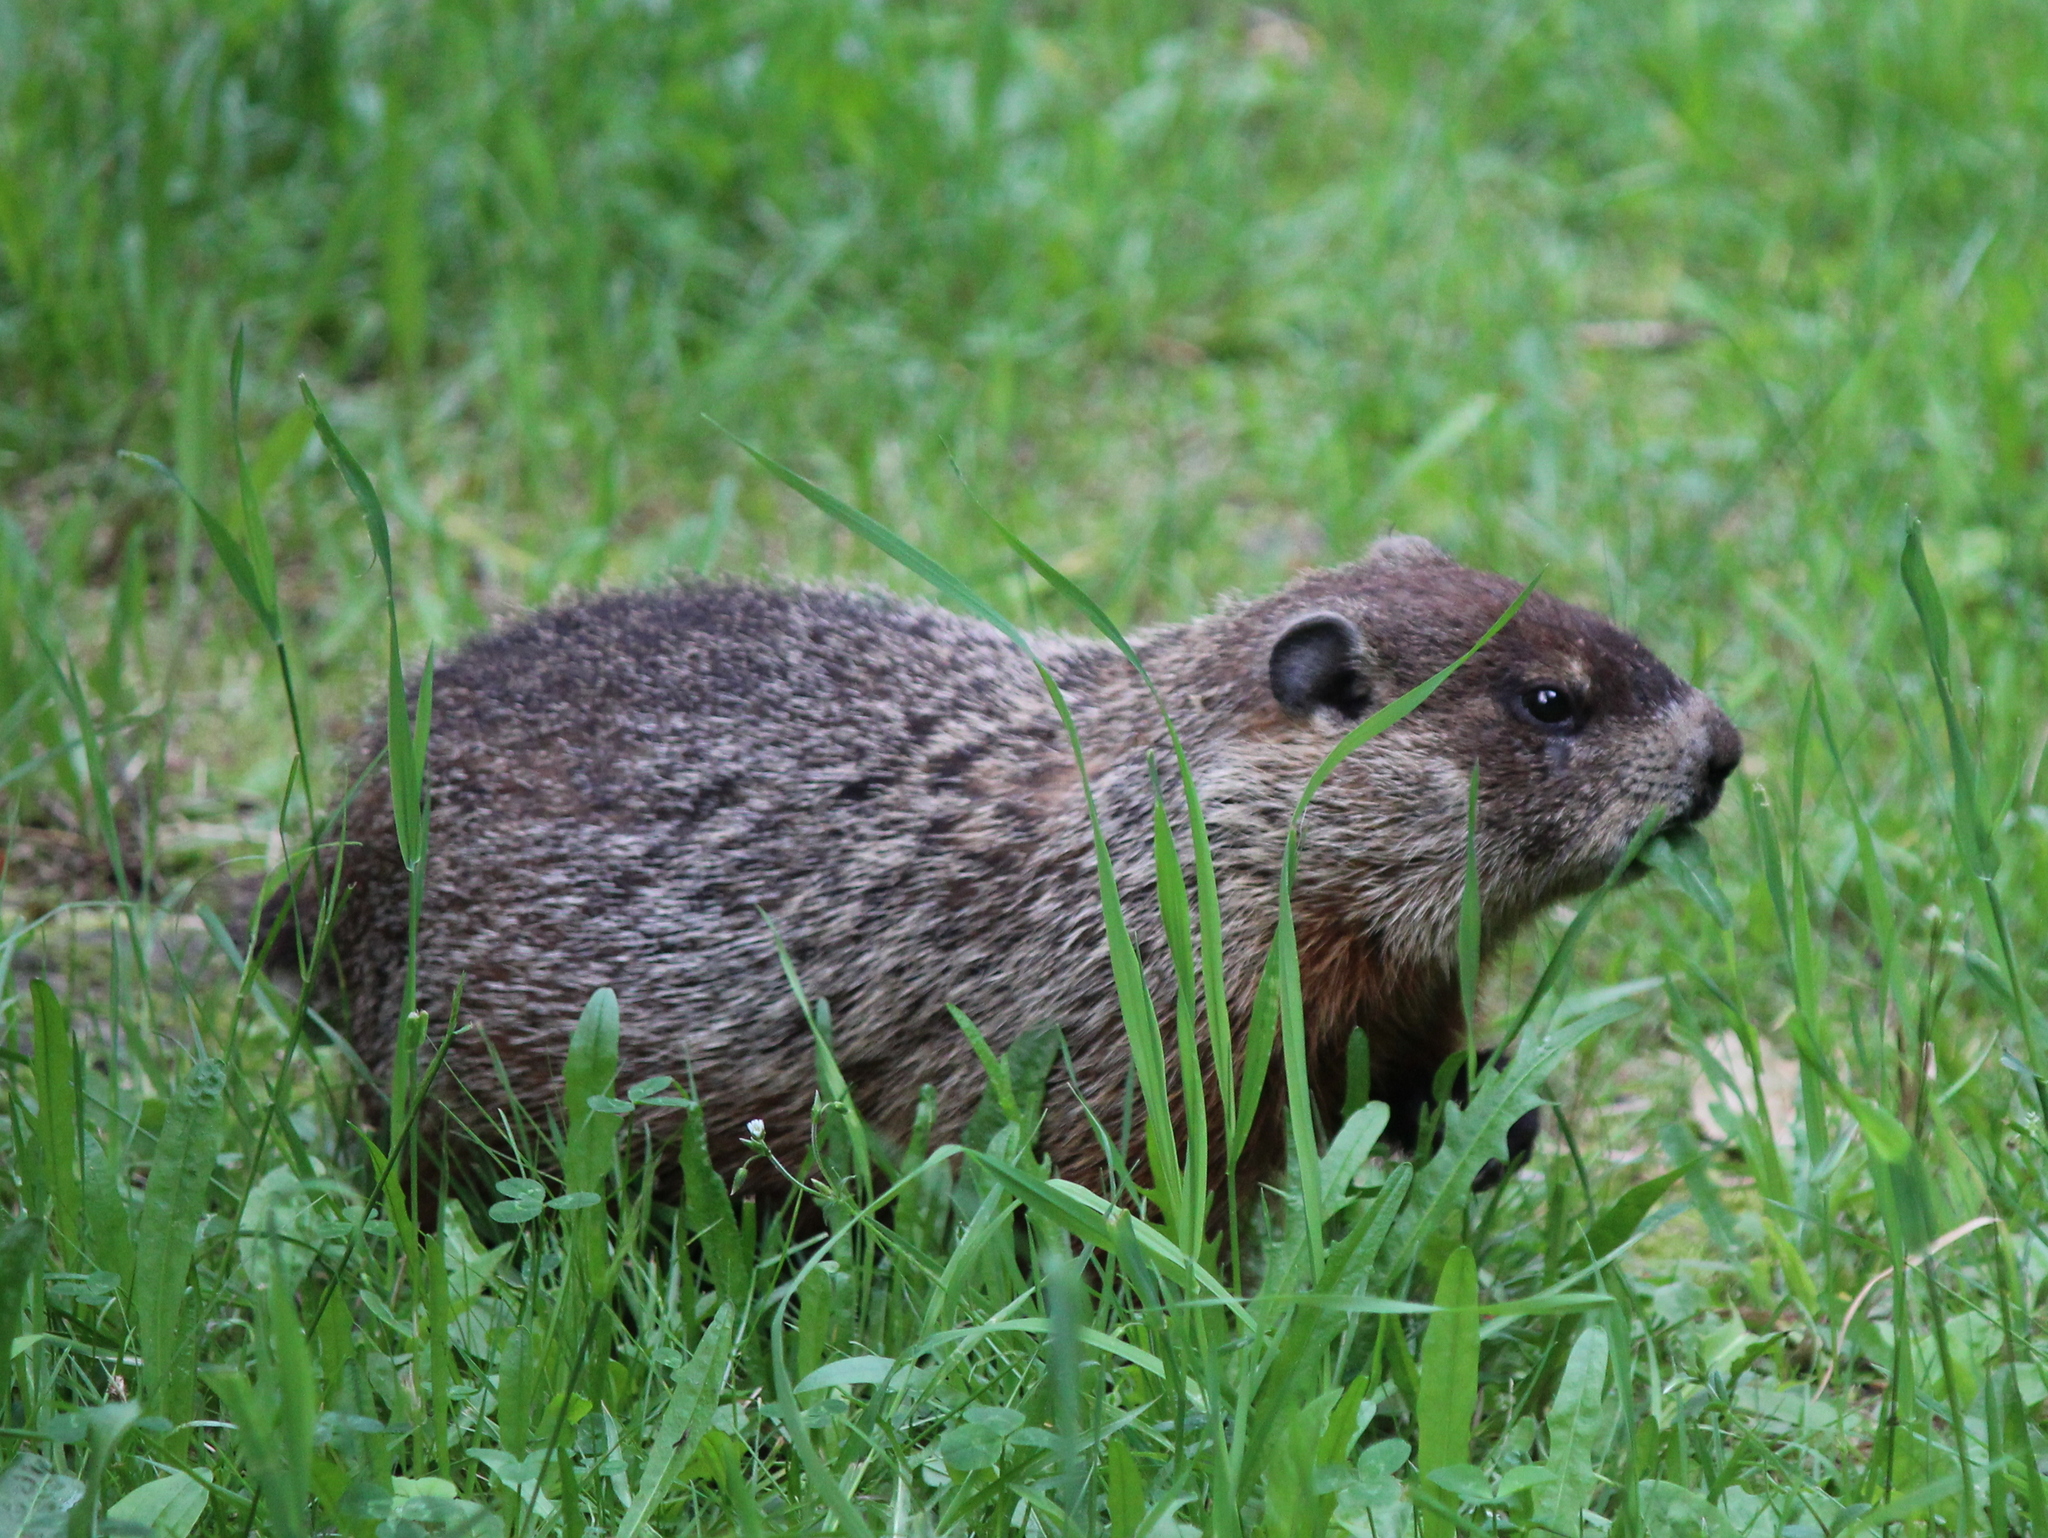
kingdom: Animalia
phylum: Chordata
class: Mammalia
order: Rodentia
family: Sciuridae
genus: Marmota
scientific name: Marmota monax
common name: Groundhog
